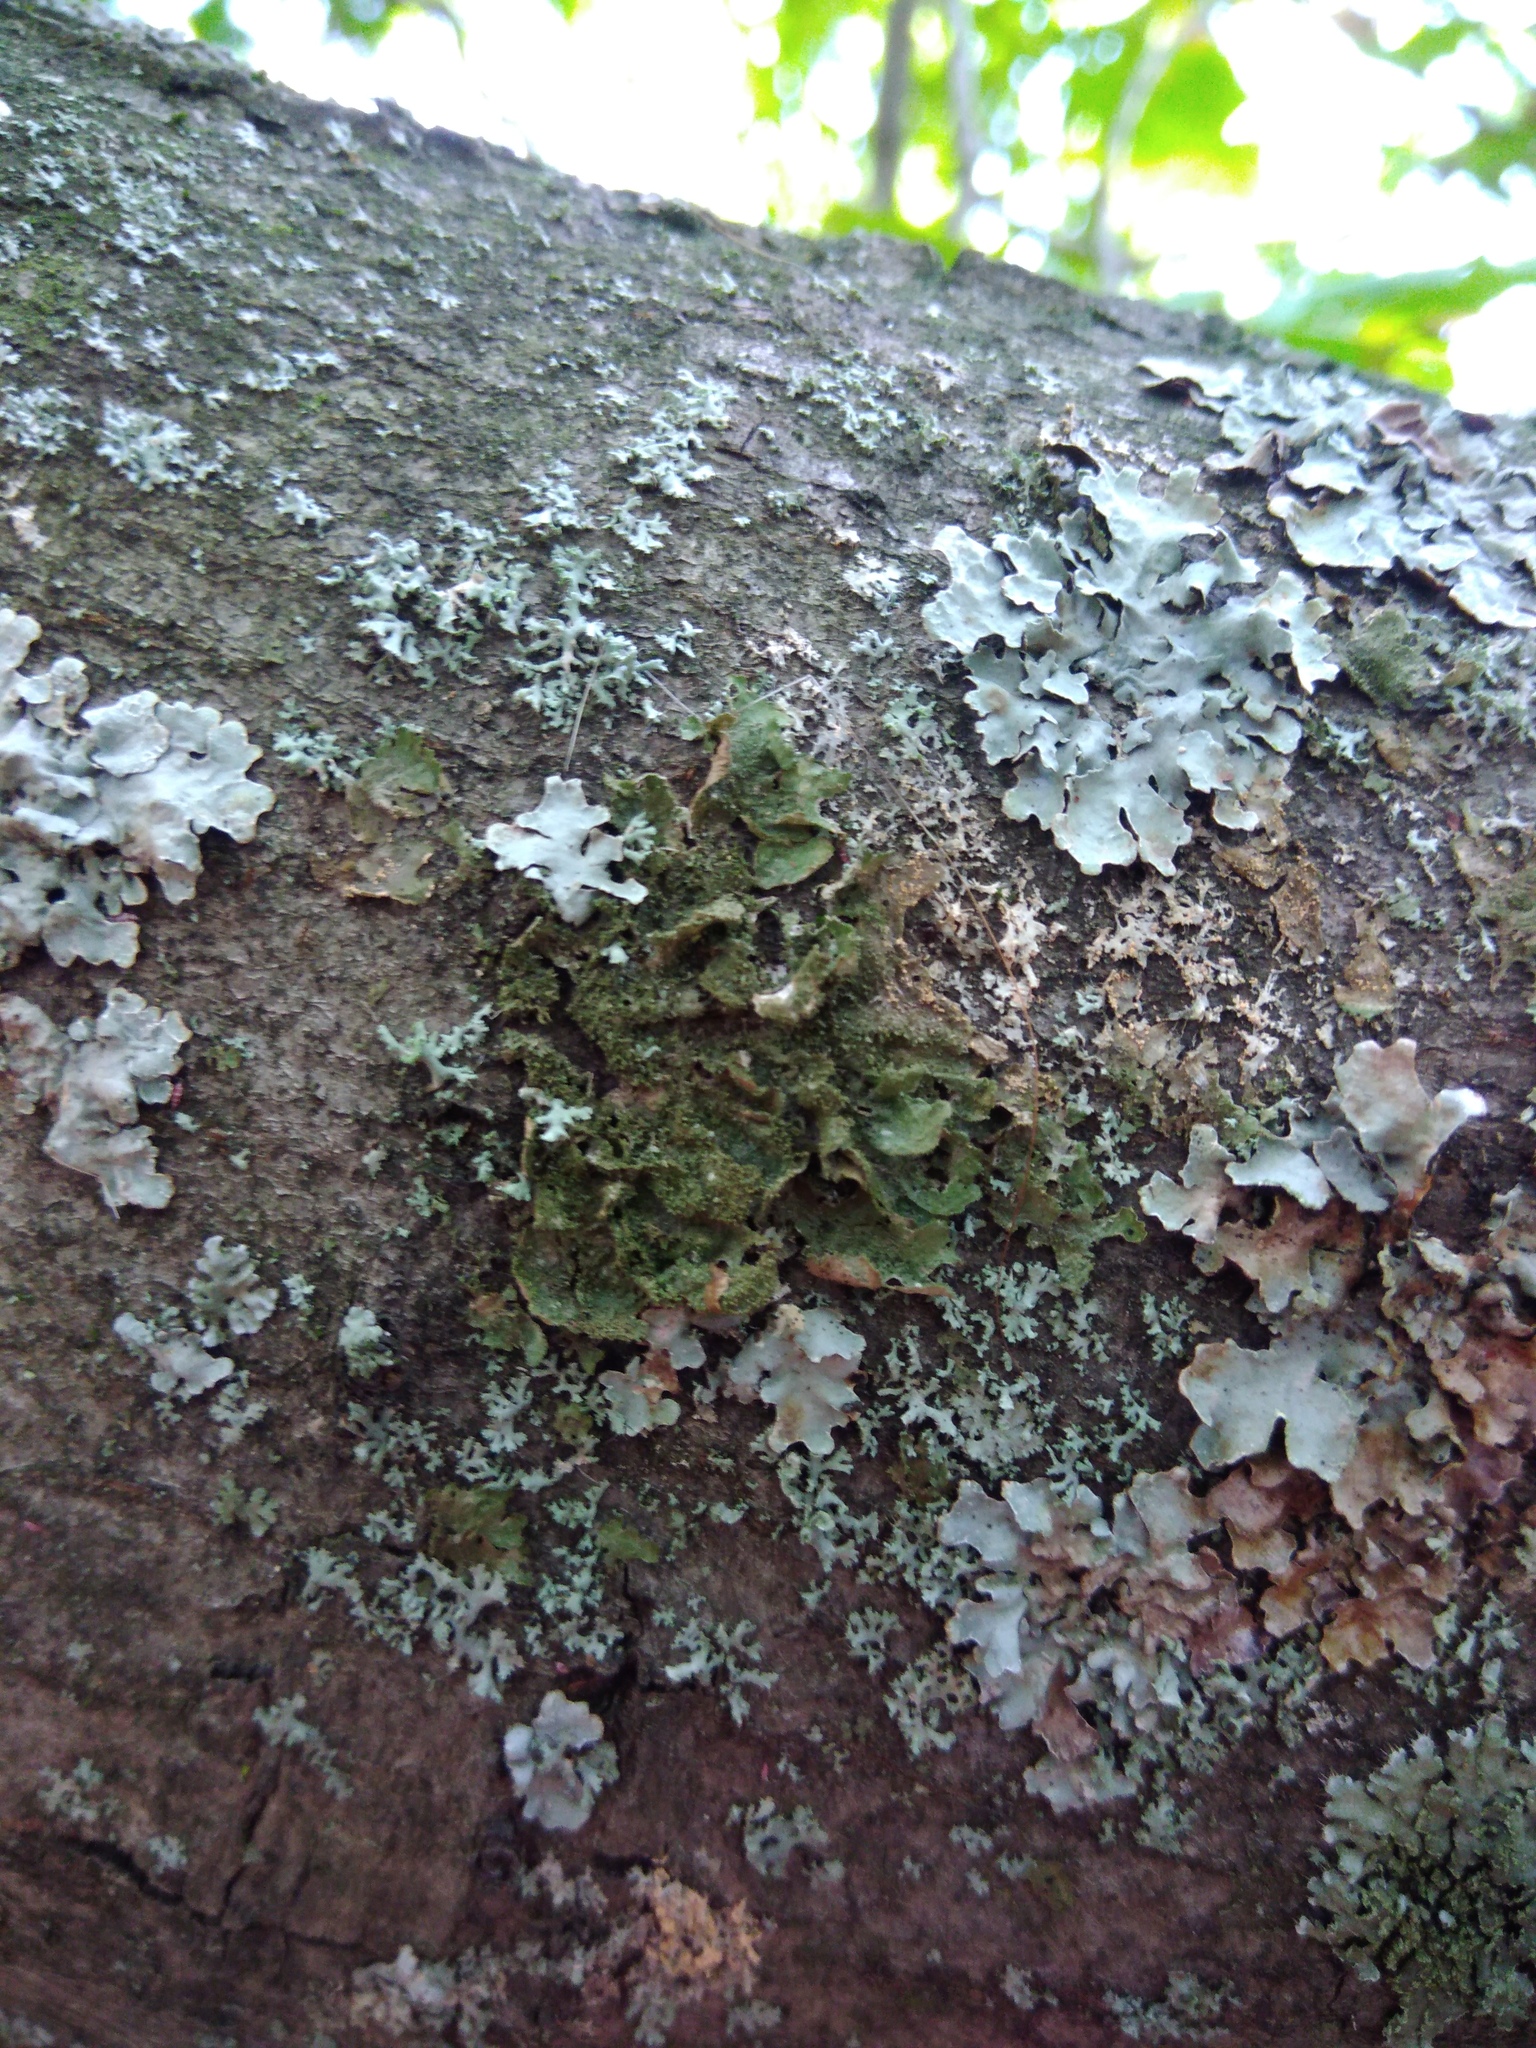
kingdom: Fungi
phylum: Ascomycota
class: Lecanoromycetes
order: Lecanorales
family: Parmeliaceae
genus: Melanohalea
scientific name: Melanohalea exasperatula
